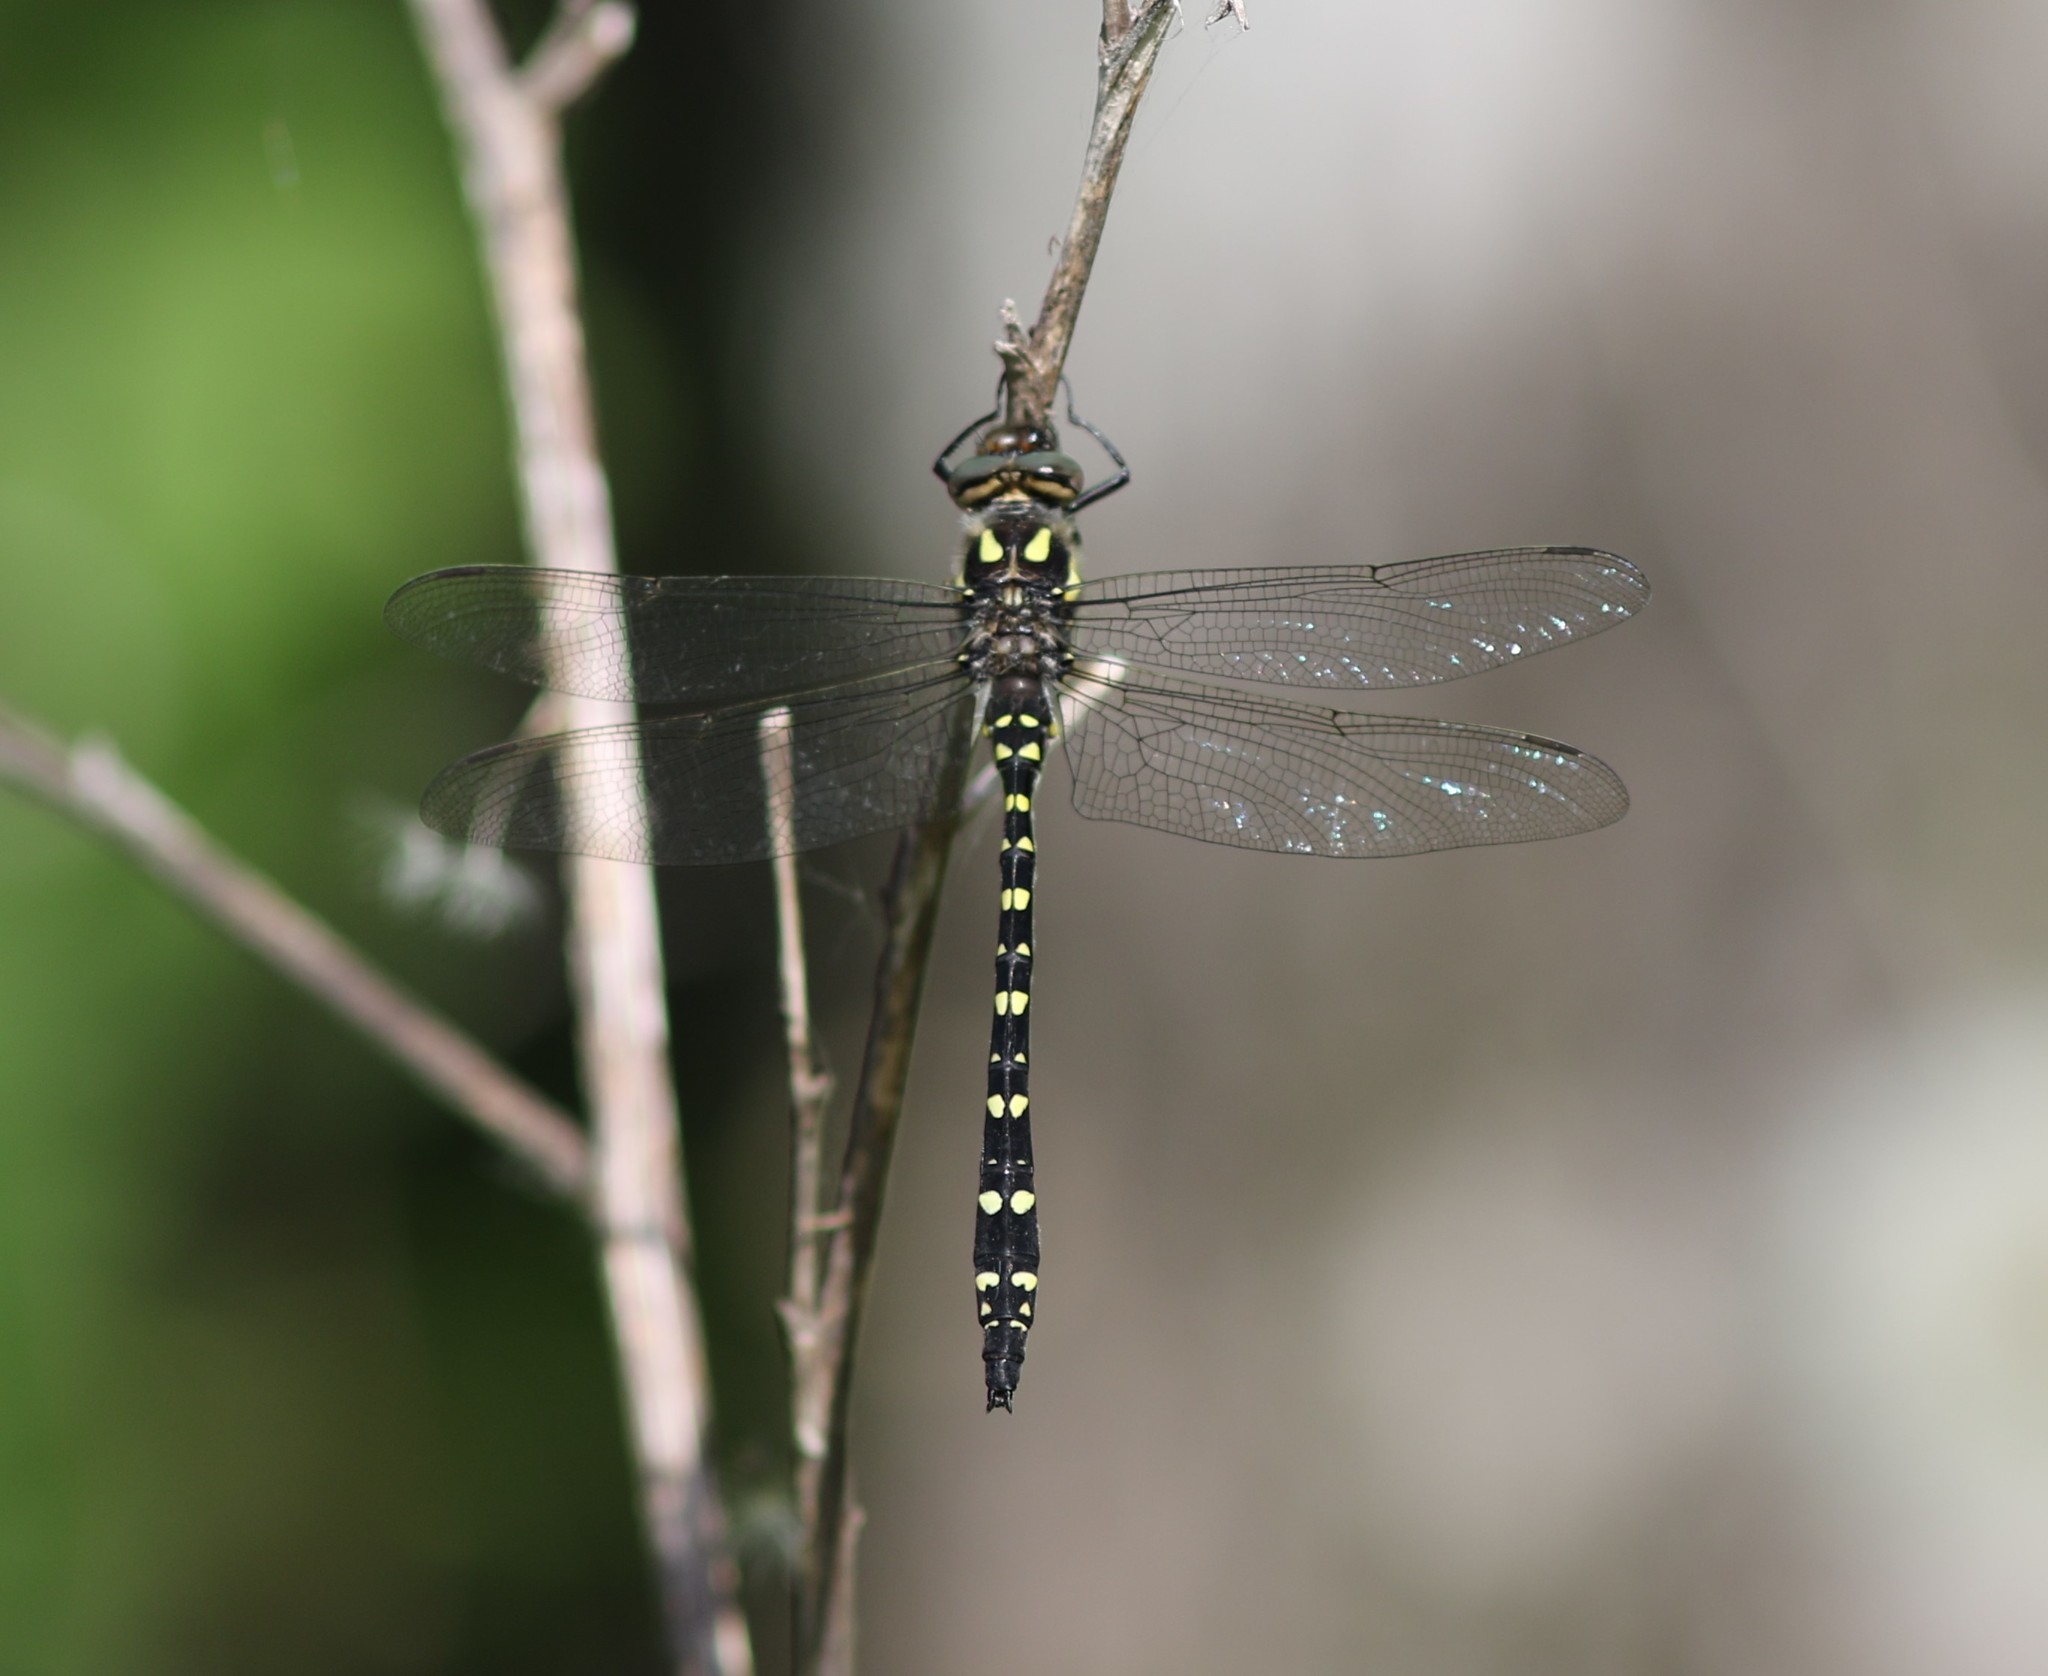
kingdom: Animalia
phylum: Arthropoda
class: Insecta
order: Odonata
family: Cordulegastridae
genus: Cordulegaster
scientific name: Cordulegaster maculata
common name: Twin-spotted spiketail
